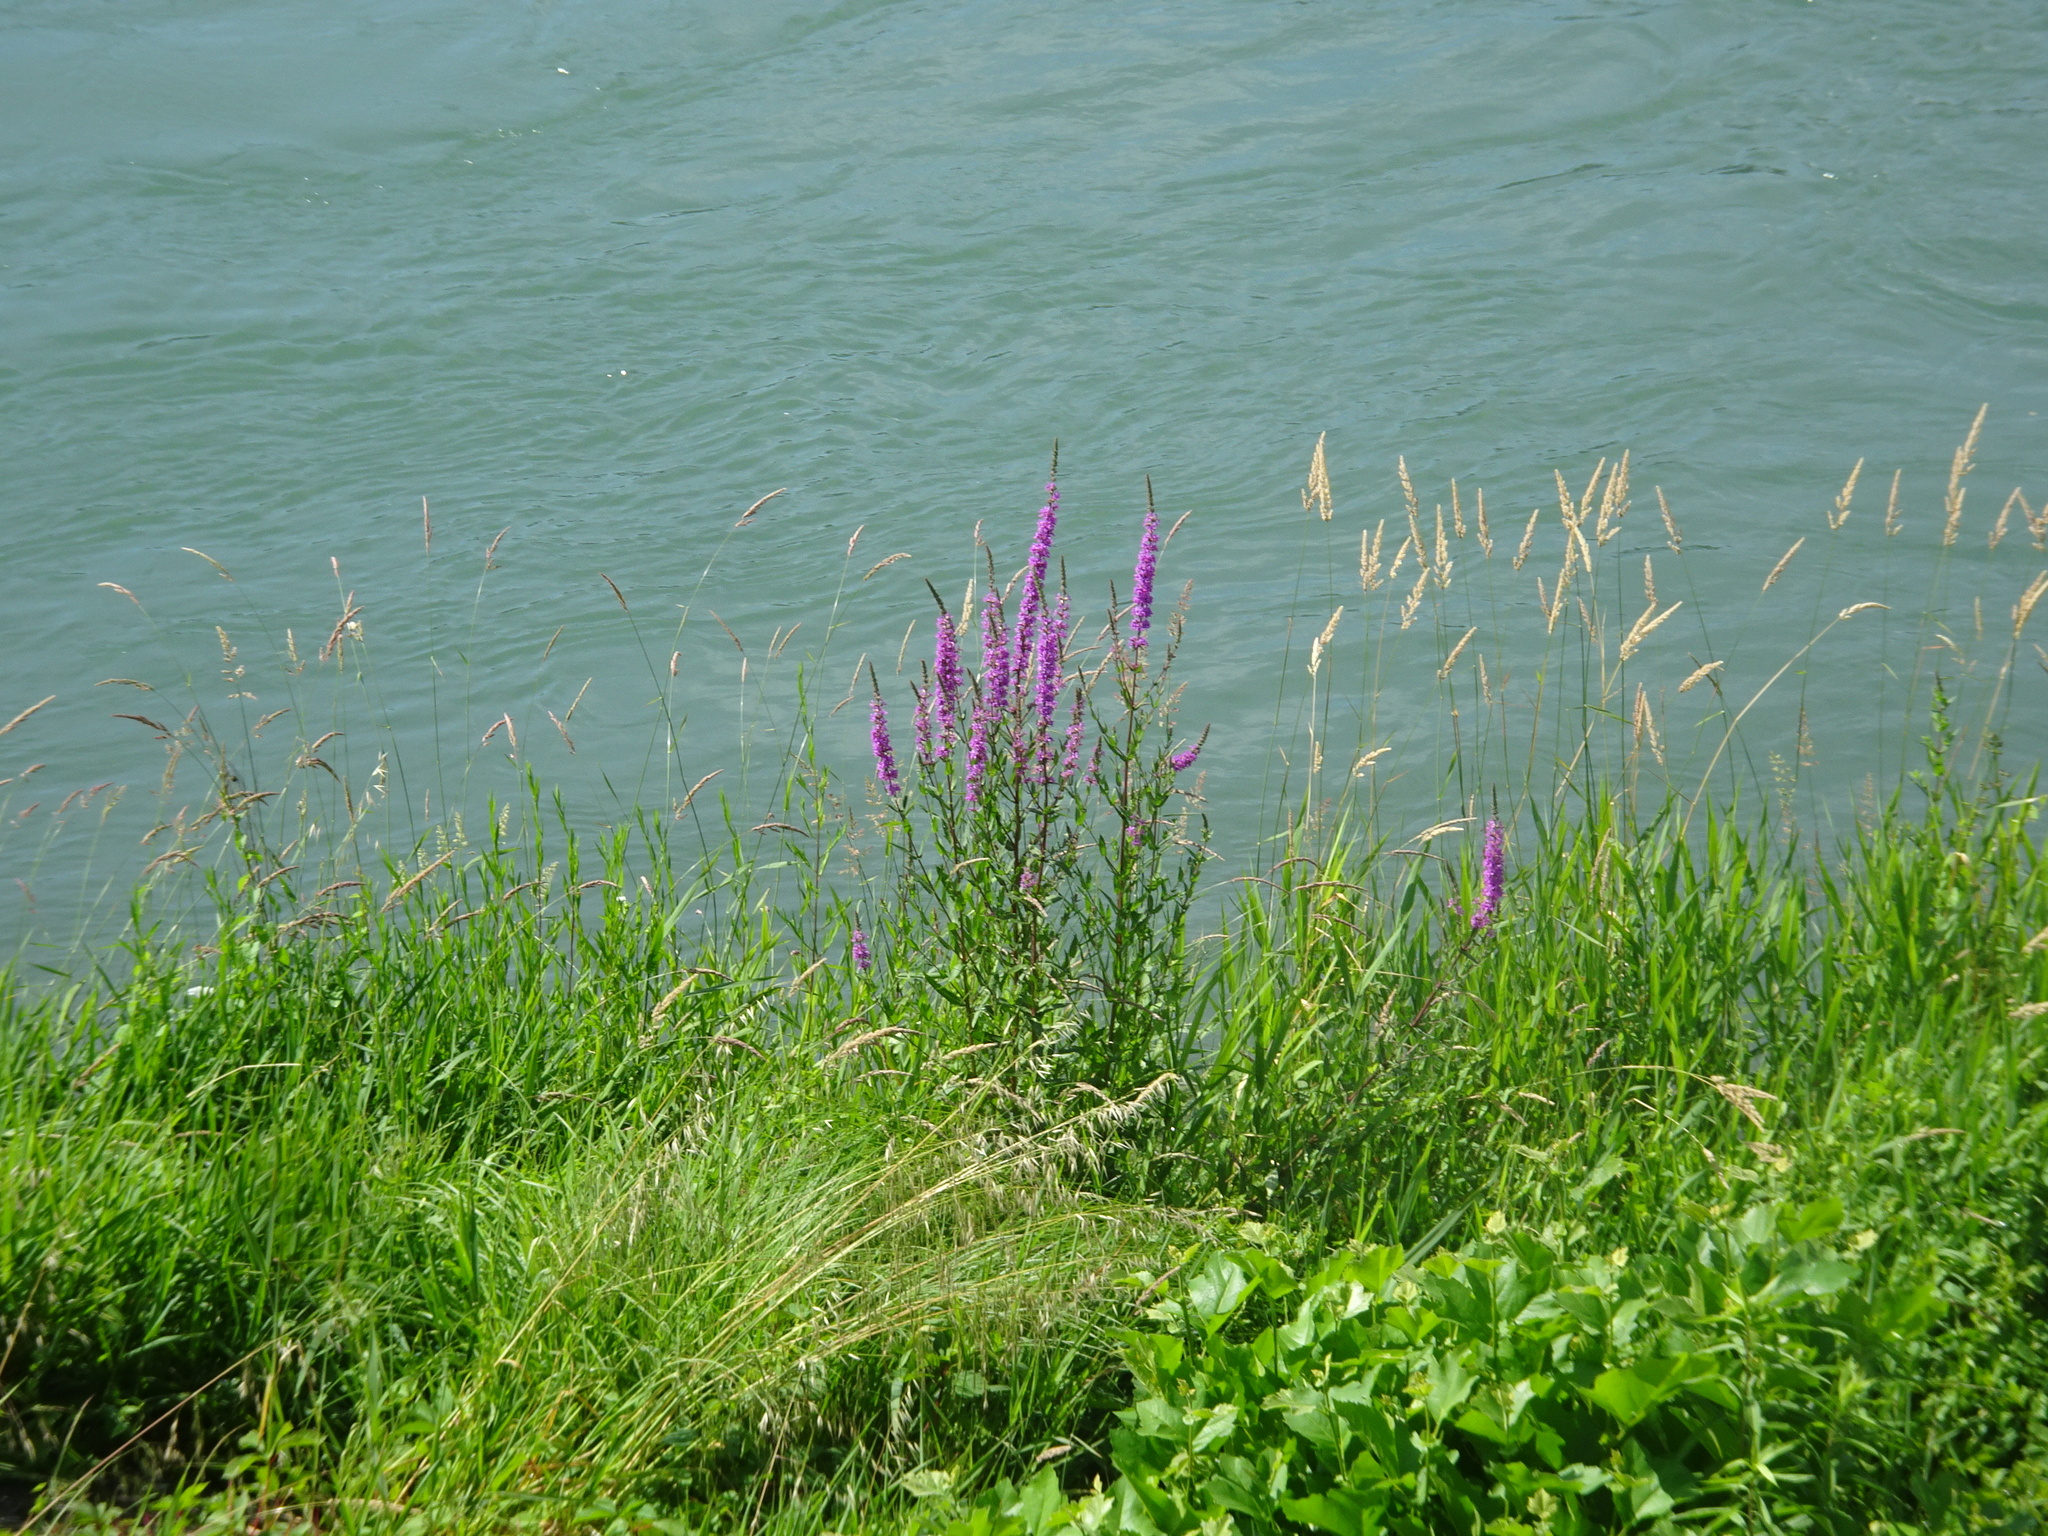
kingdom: Plantae
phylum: Tracheophyta
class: Magnoliopsida
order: Myrtales
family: Lythraceae
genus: Lythrum
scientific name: Lythrum salicaria
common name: Purple loosestrife
